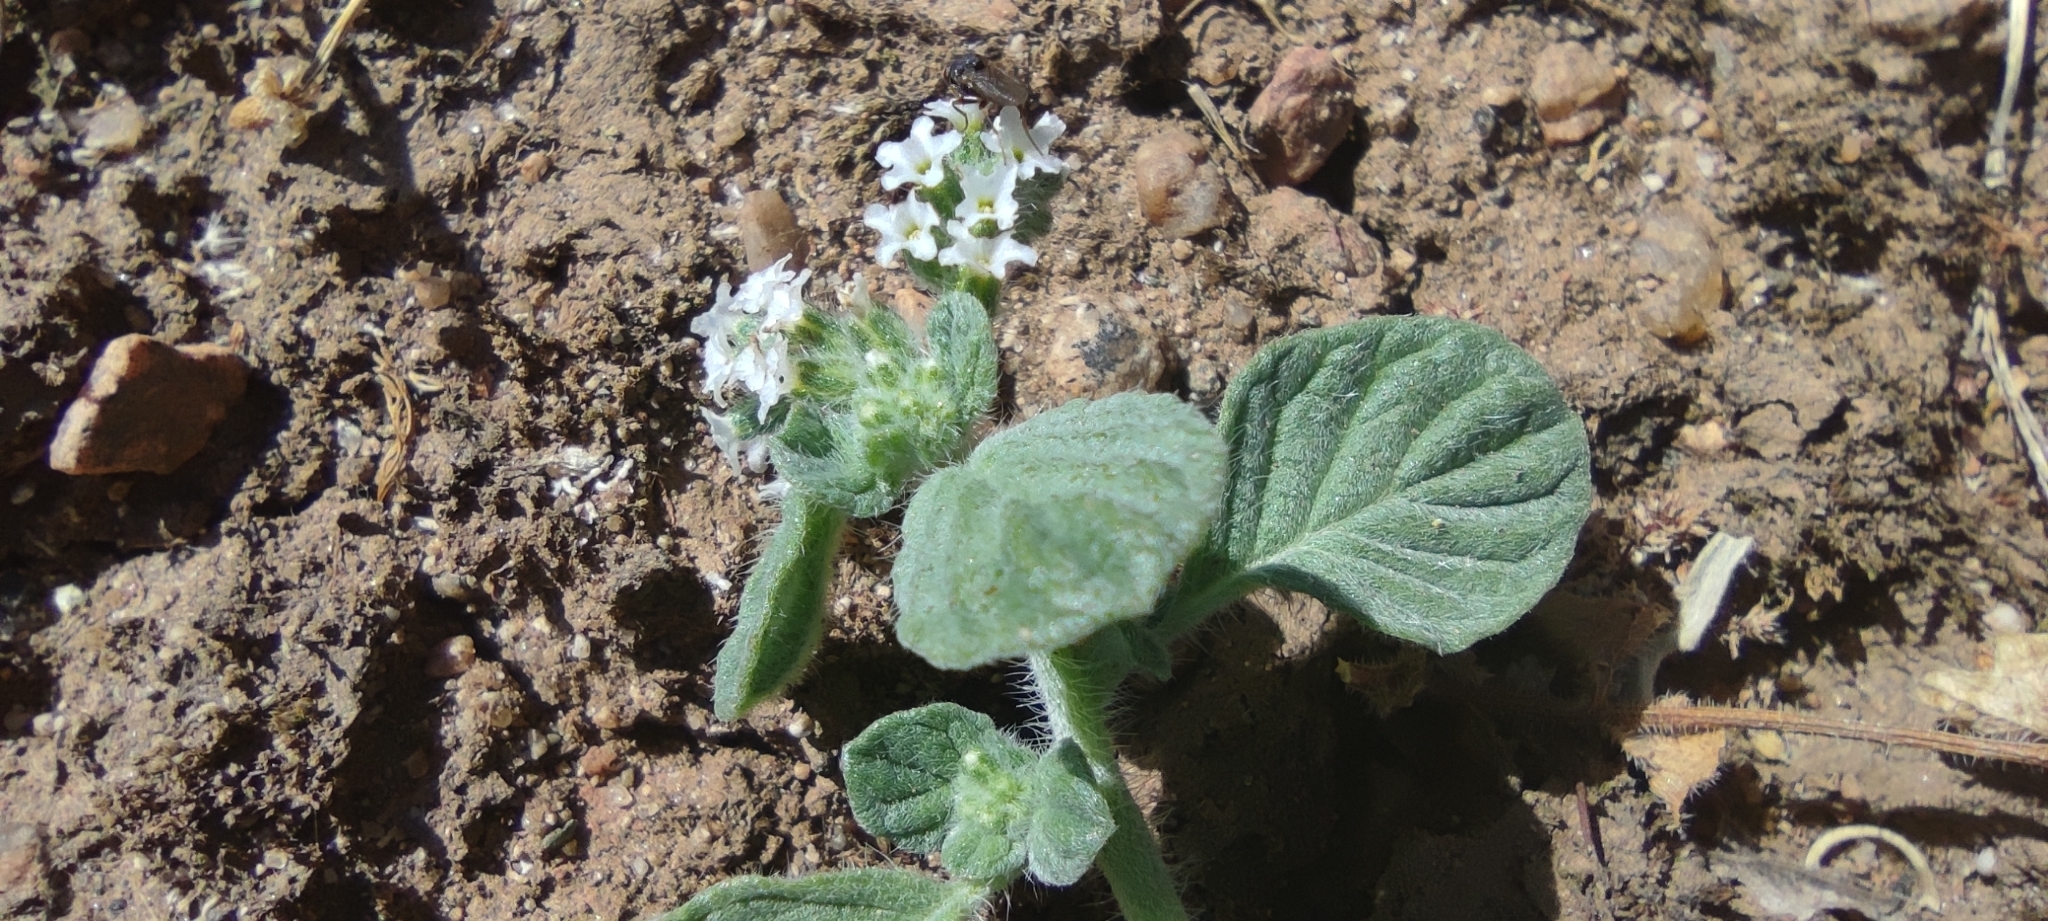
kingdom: Plantae
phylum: Tracheophyta
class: Magnoliopsida
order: Boraginales
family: Heliotropiaceae
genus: Heliotropium
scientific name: Heliotropium supinum
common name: Dwarf heliotrope
